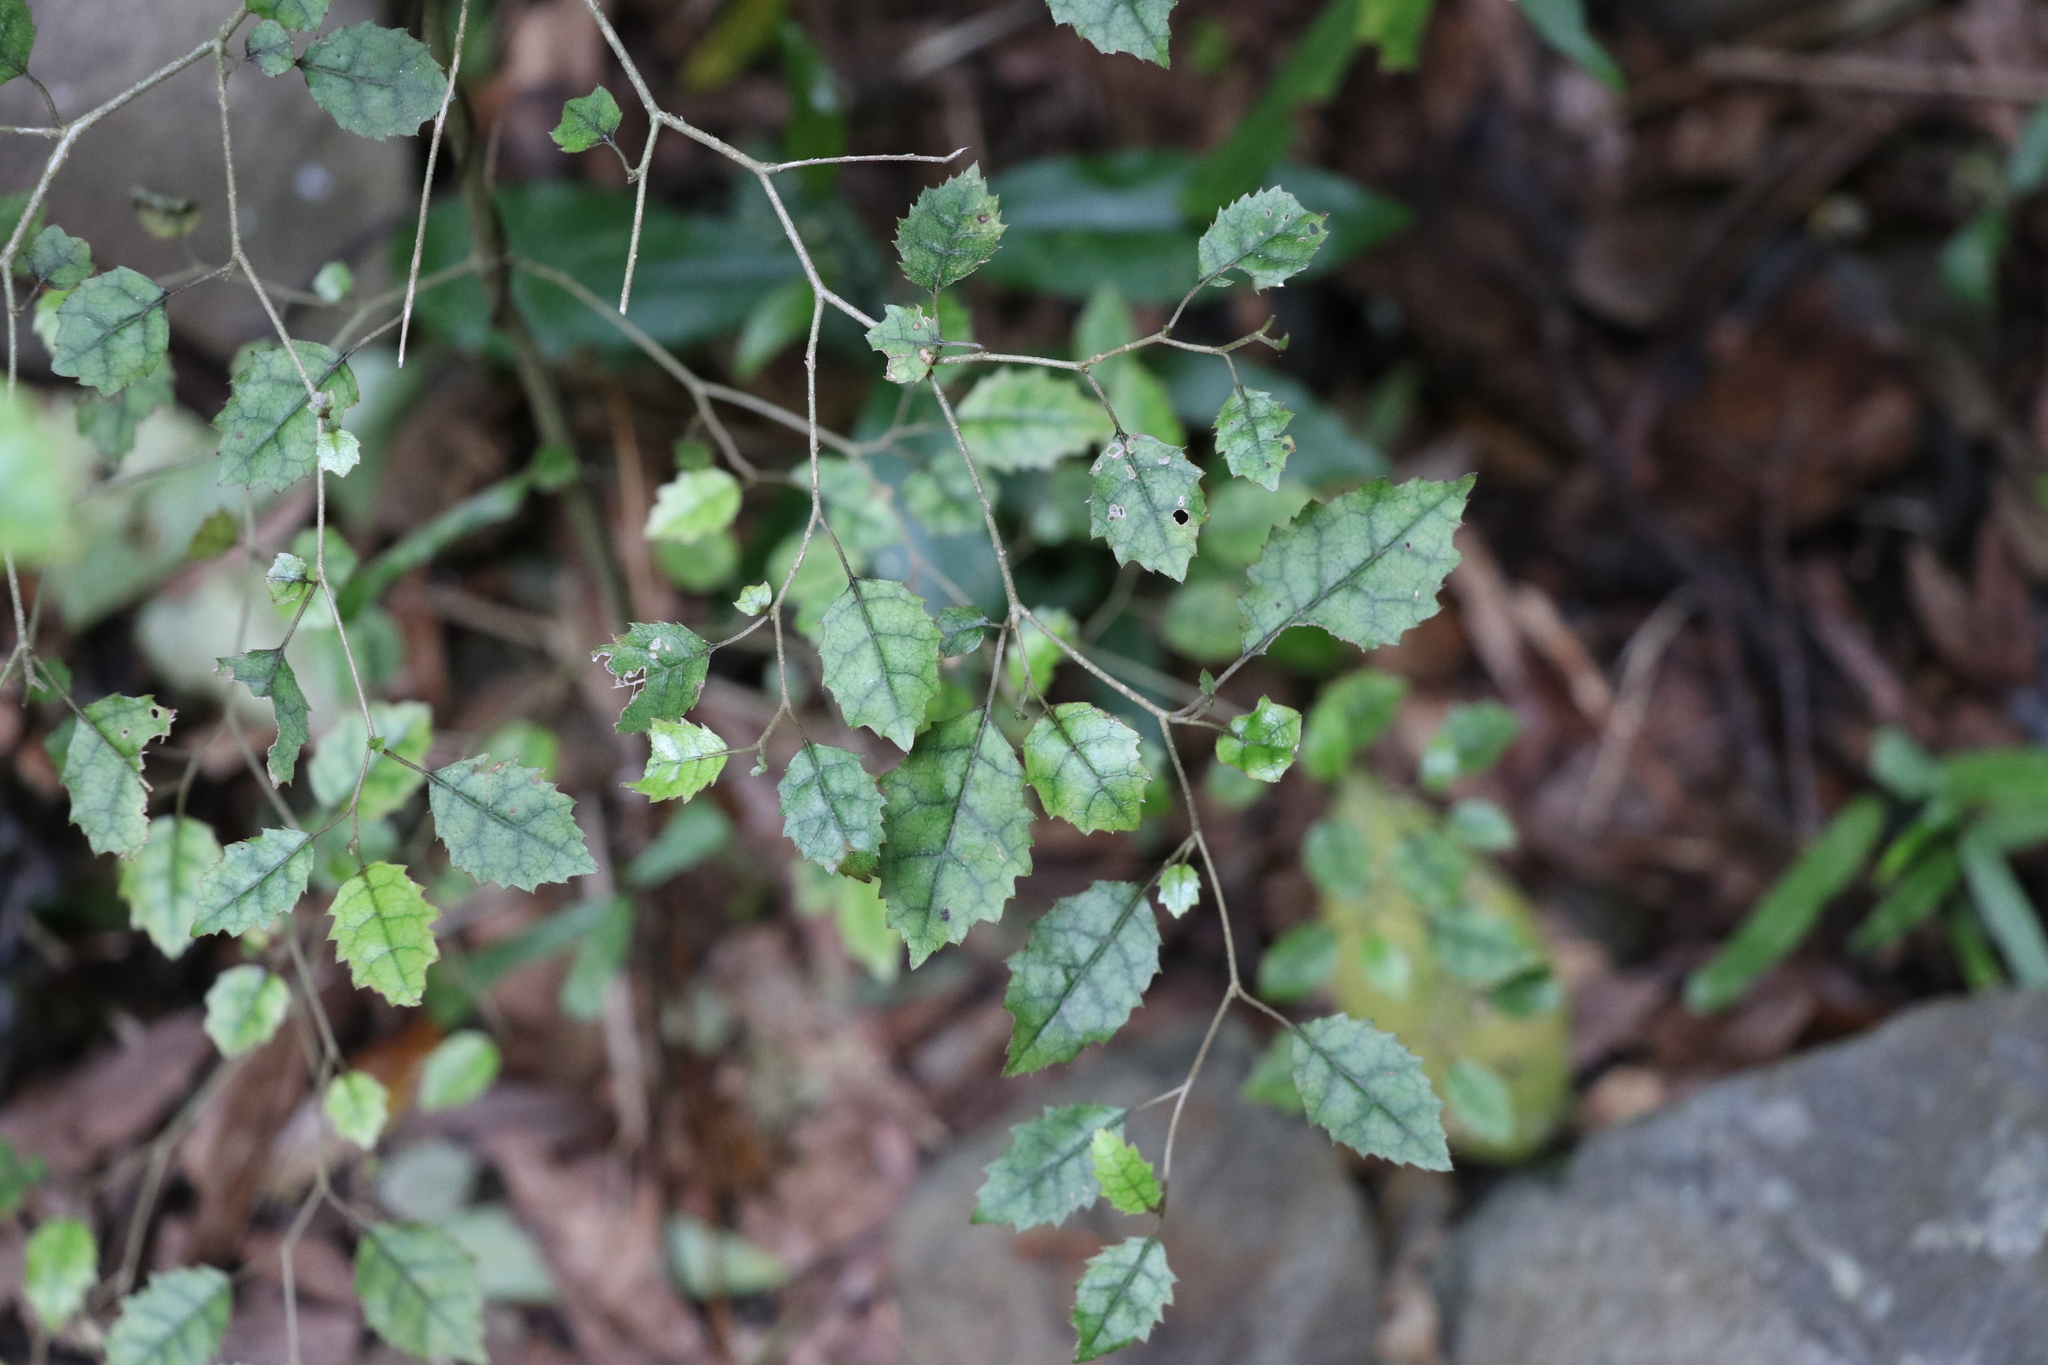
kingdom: Plantae
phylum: Tracheophyta
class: Magnoliopsida
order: Asterales
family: Rousseaceae
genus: Carpodetus
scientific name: Carpodetus serratus
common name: White mapau
